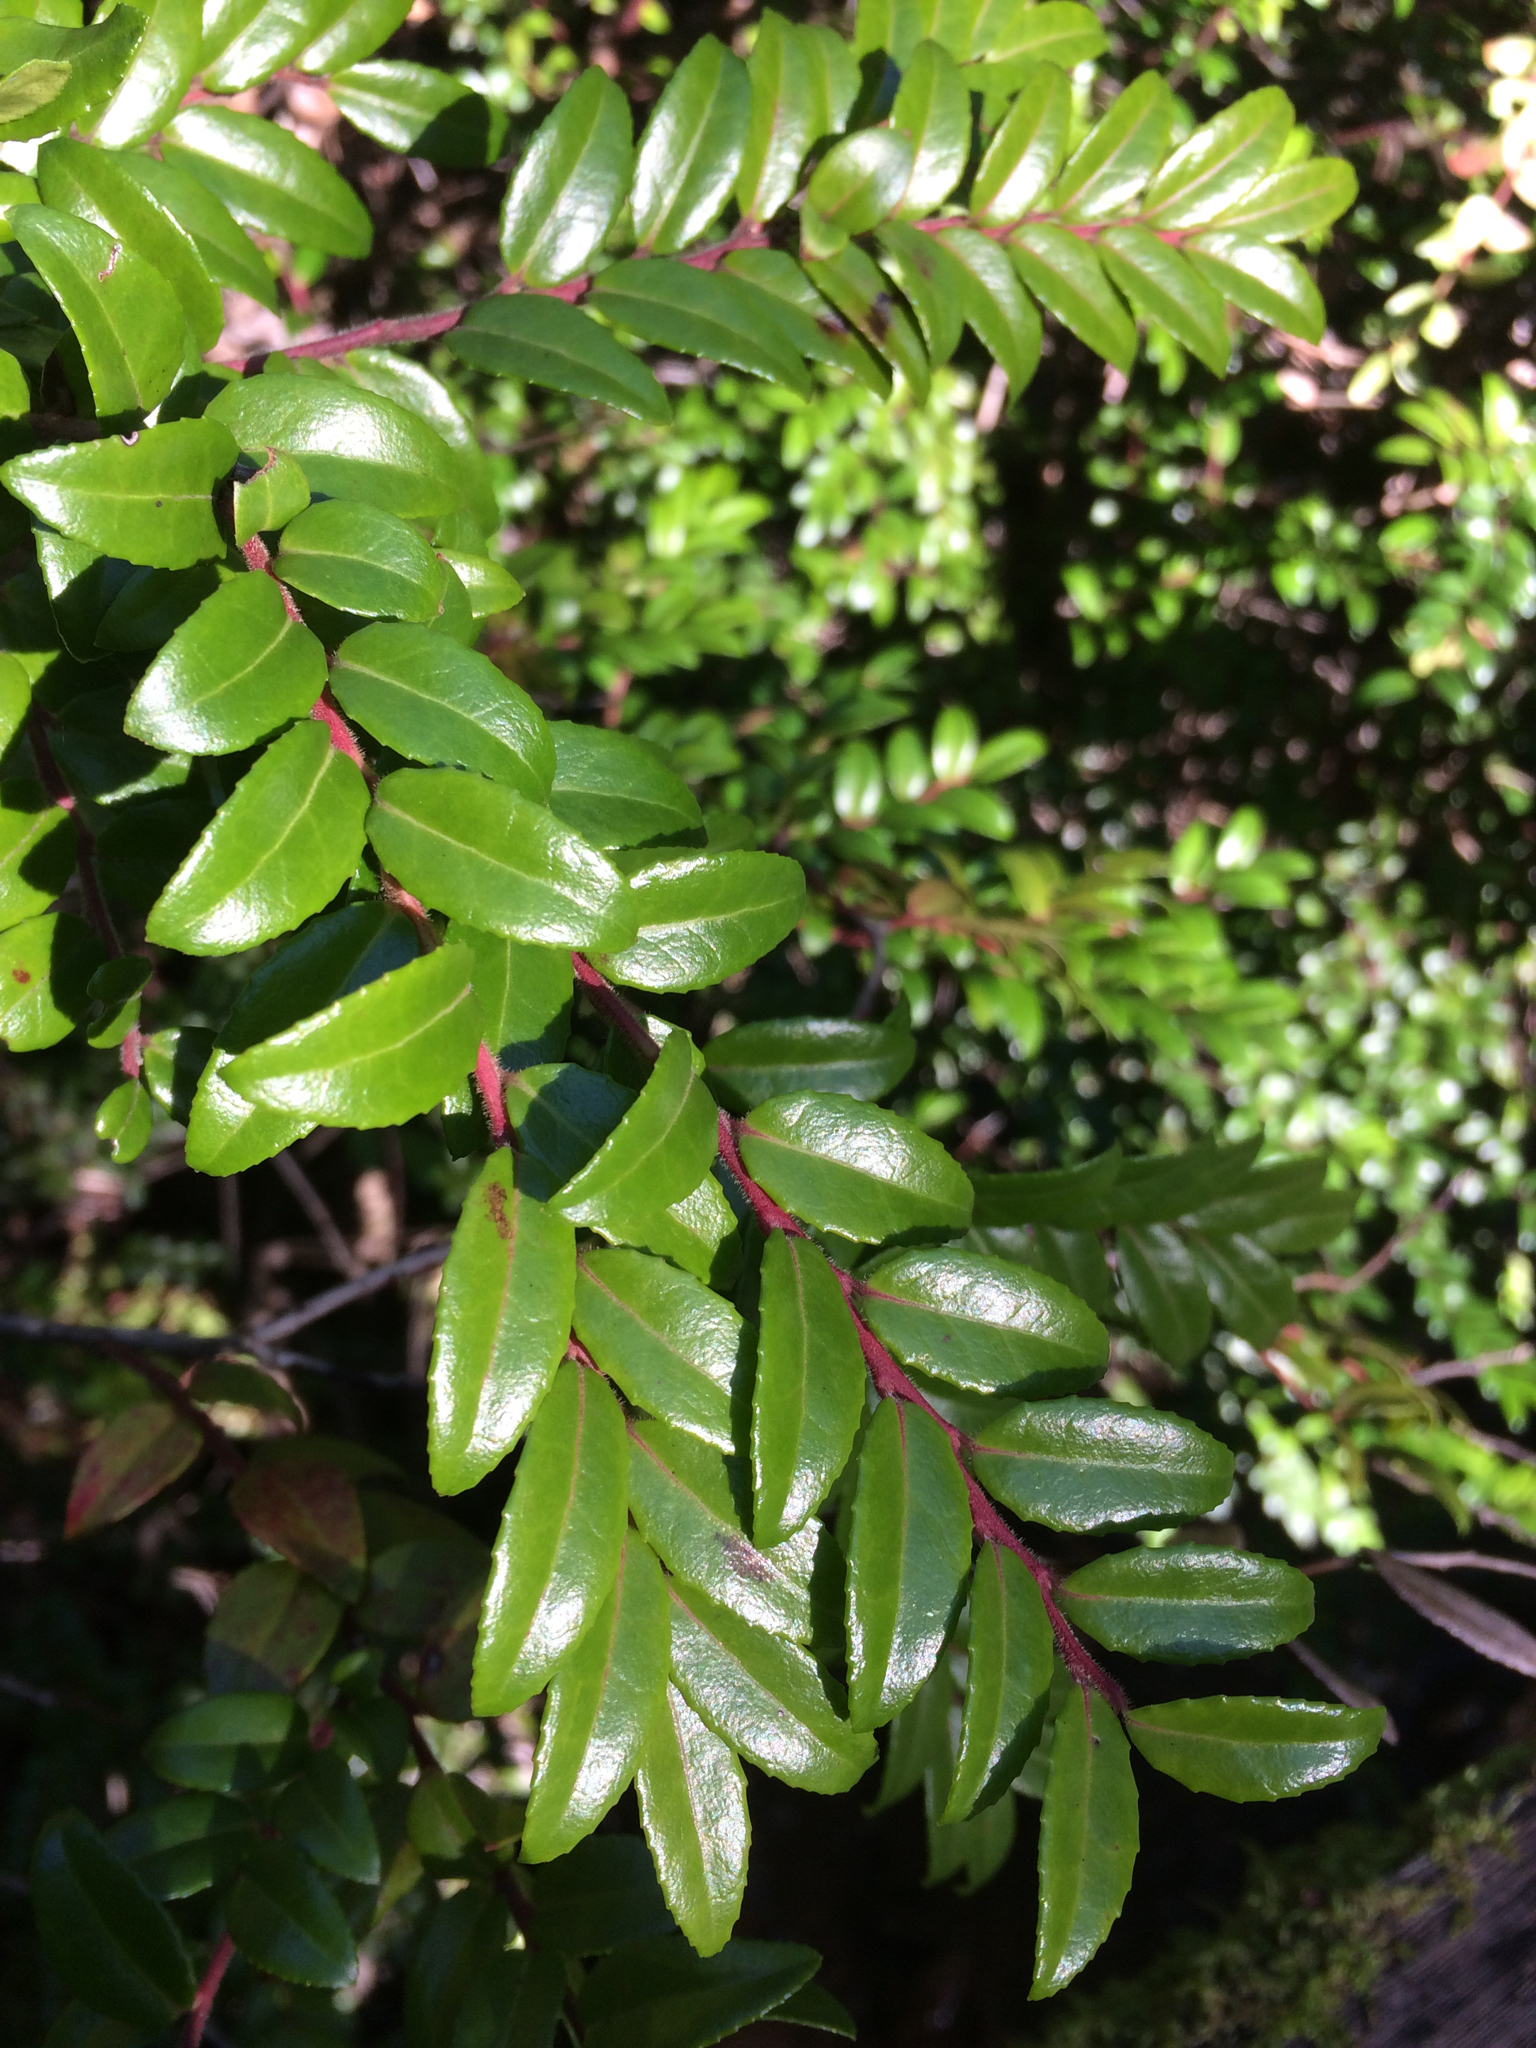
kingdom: Plantae
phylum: Tracheophyta
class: Magnoliopsida
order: Ericales
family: Ericaceae
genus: Vaccinium
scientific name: Vaccinium ovatum
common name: California-huckleberry
